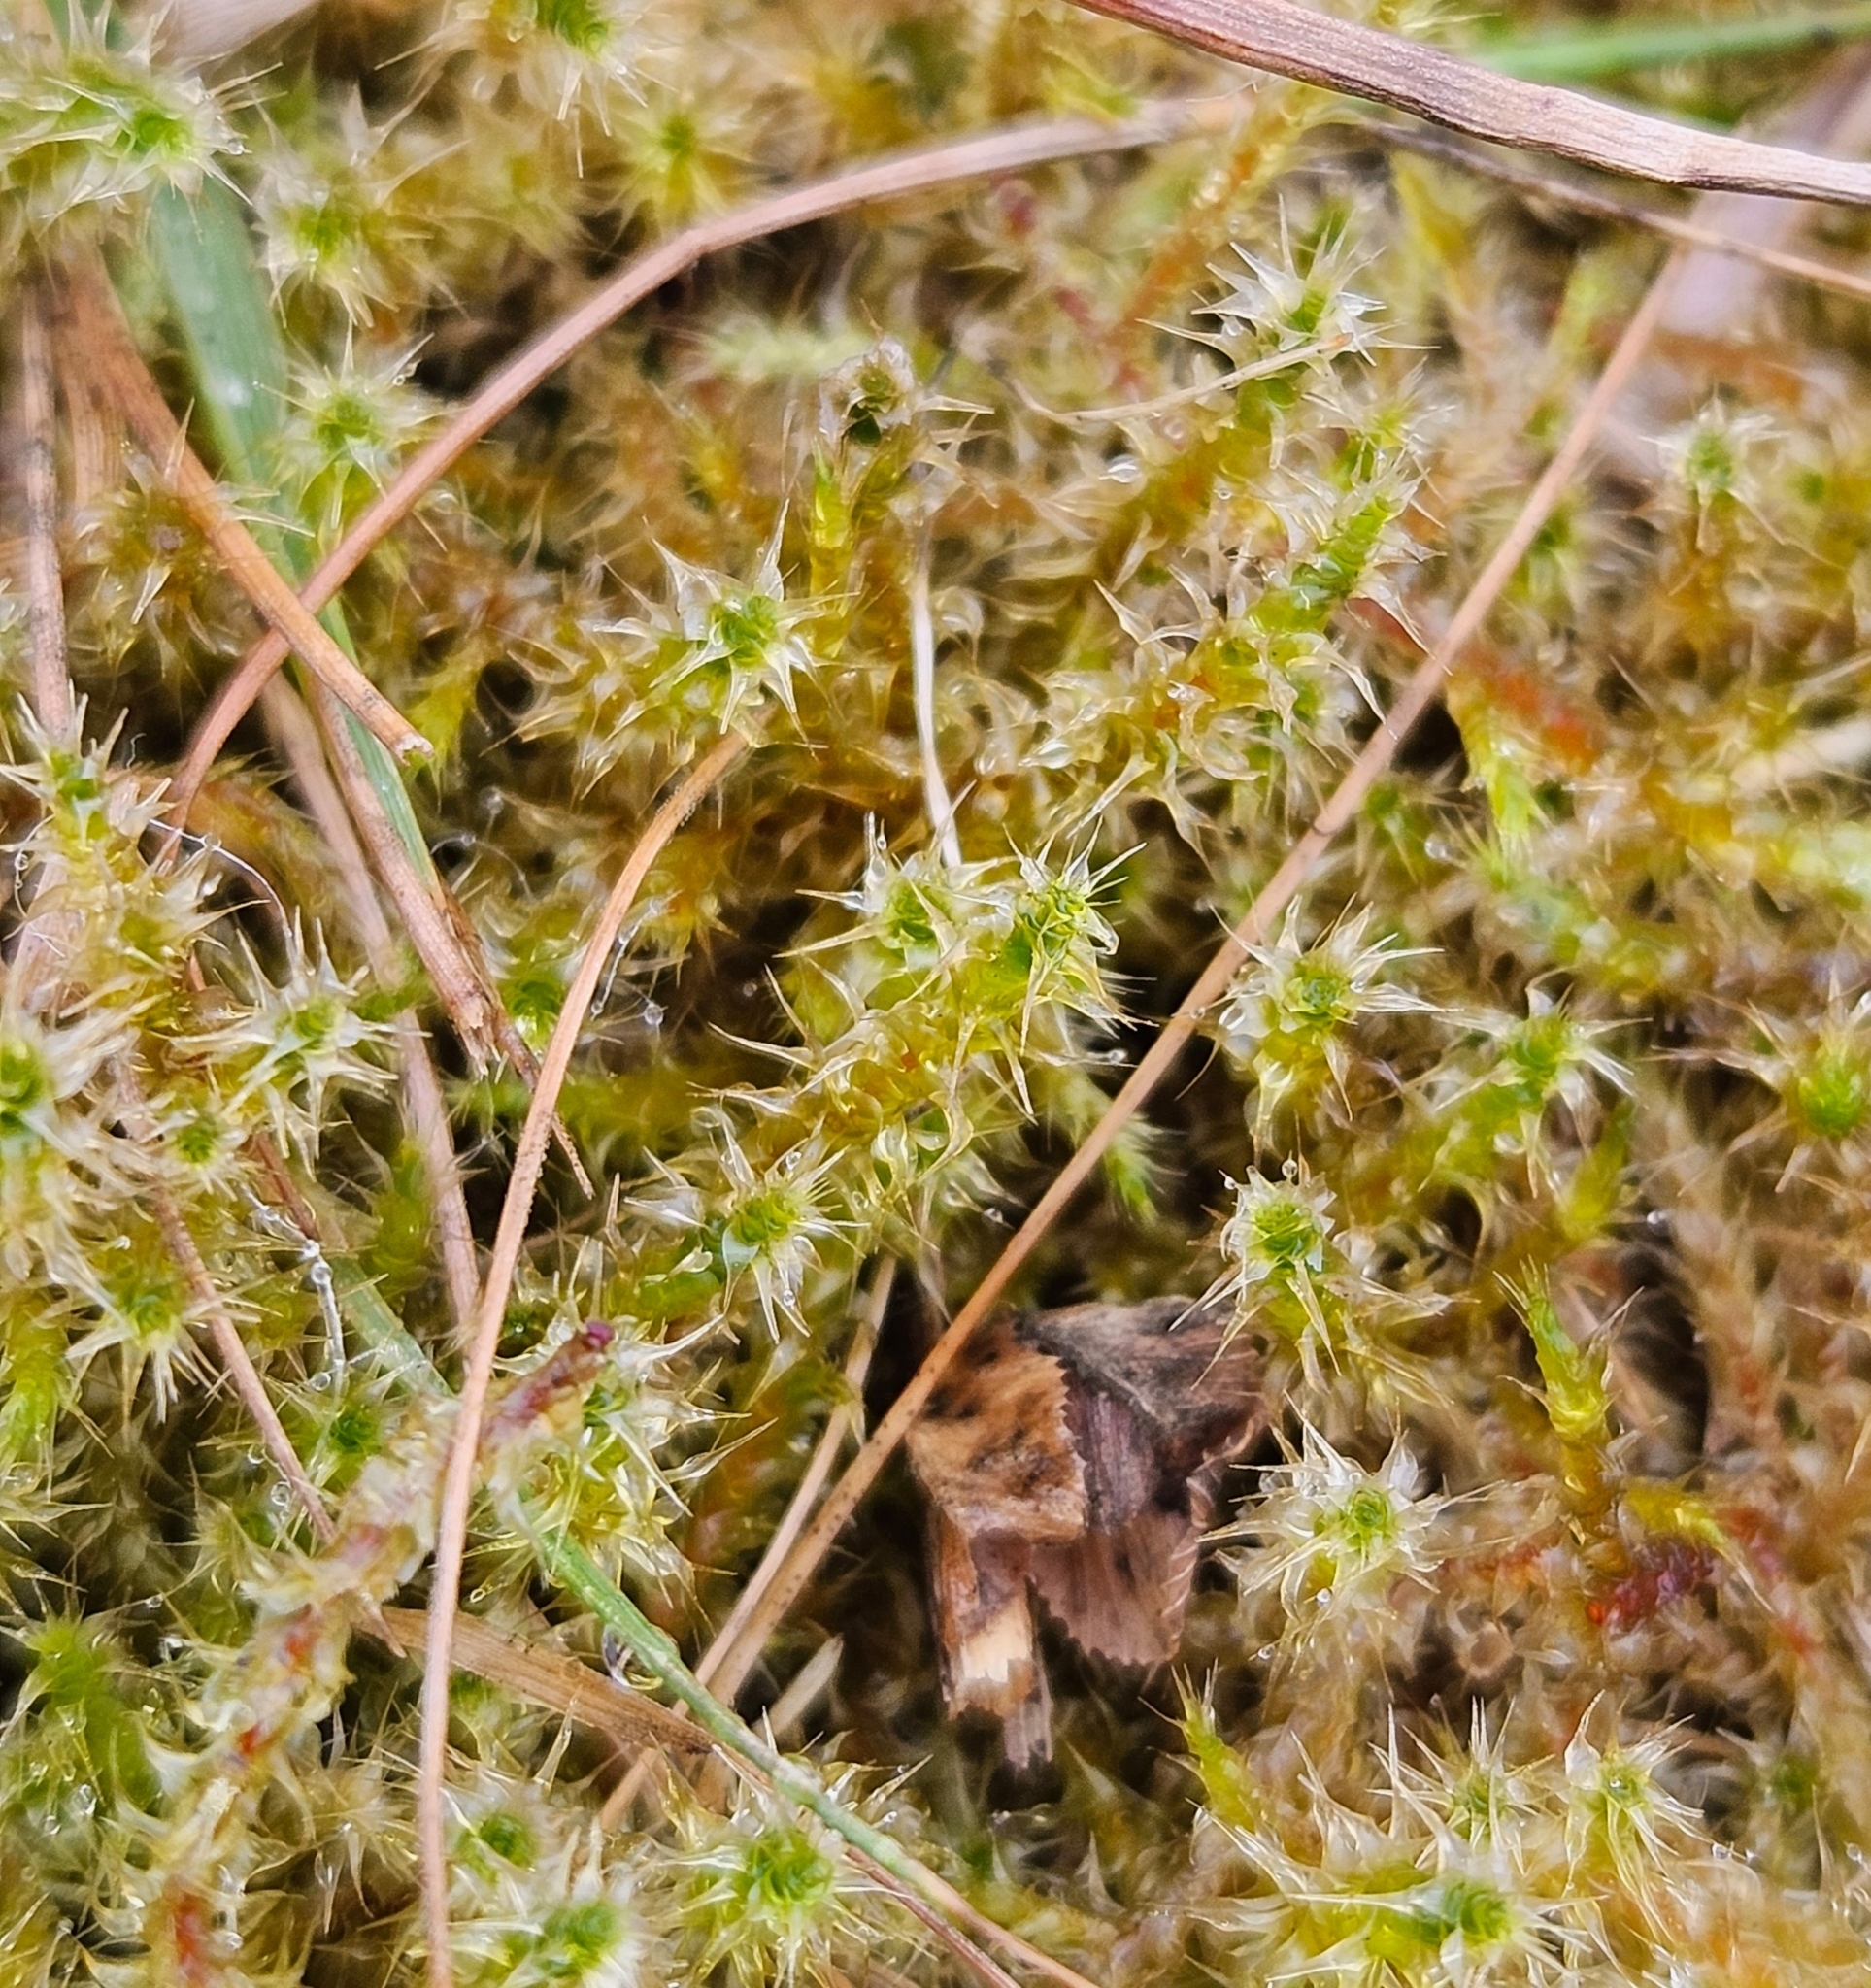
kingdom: Plantae
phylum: Bryophyta
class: Bryopsida
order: Hypnales
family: Hylocomiaceae
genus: Rhytidiadelphus
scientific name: Rhytidiadelphus squarrosus
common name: Springy turf-moss
